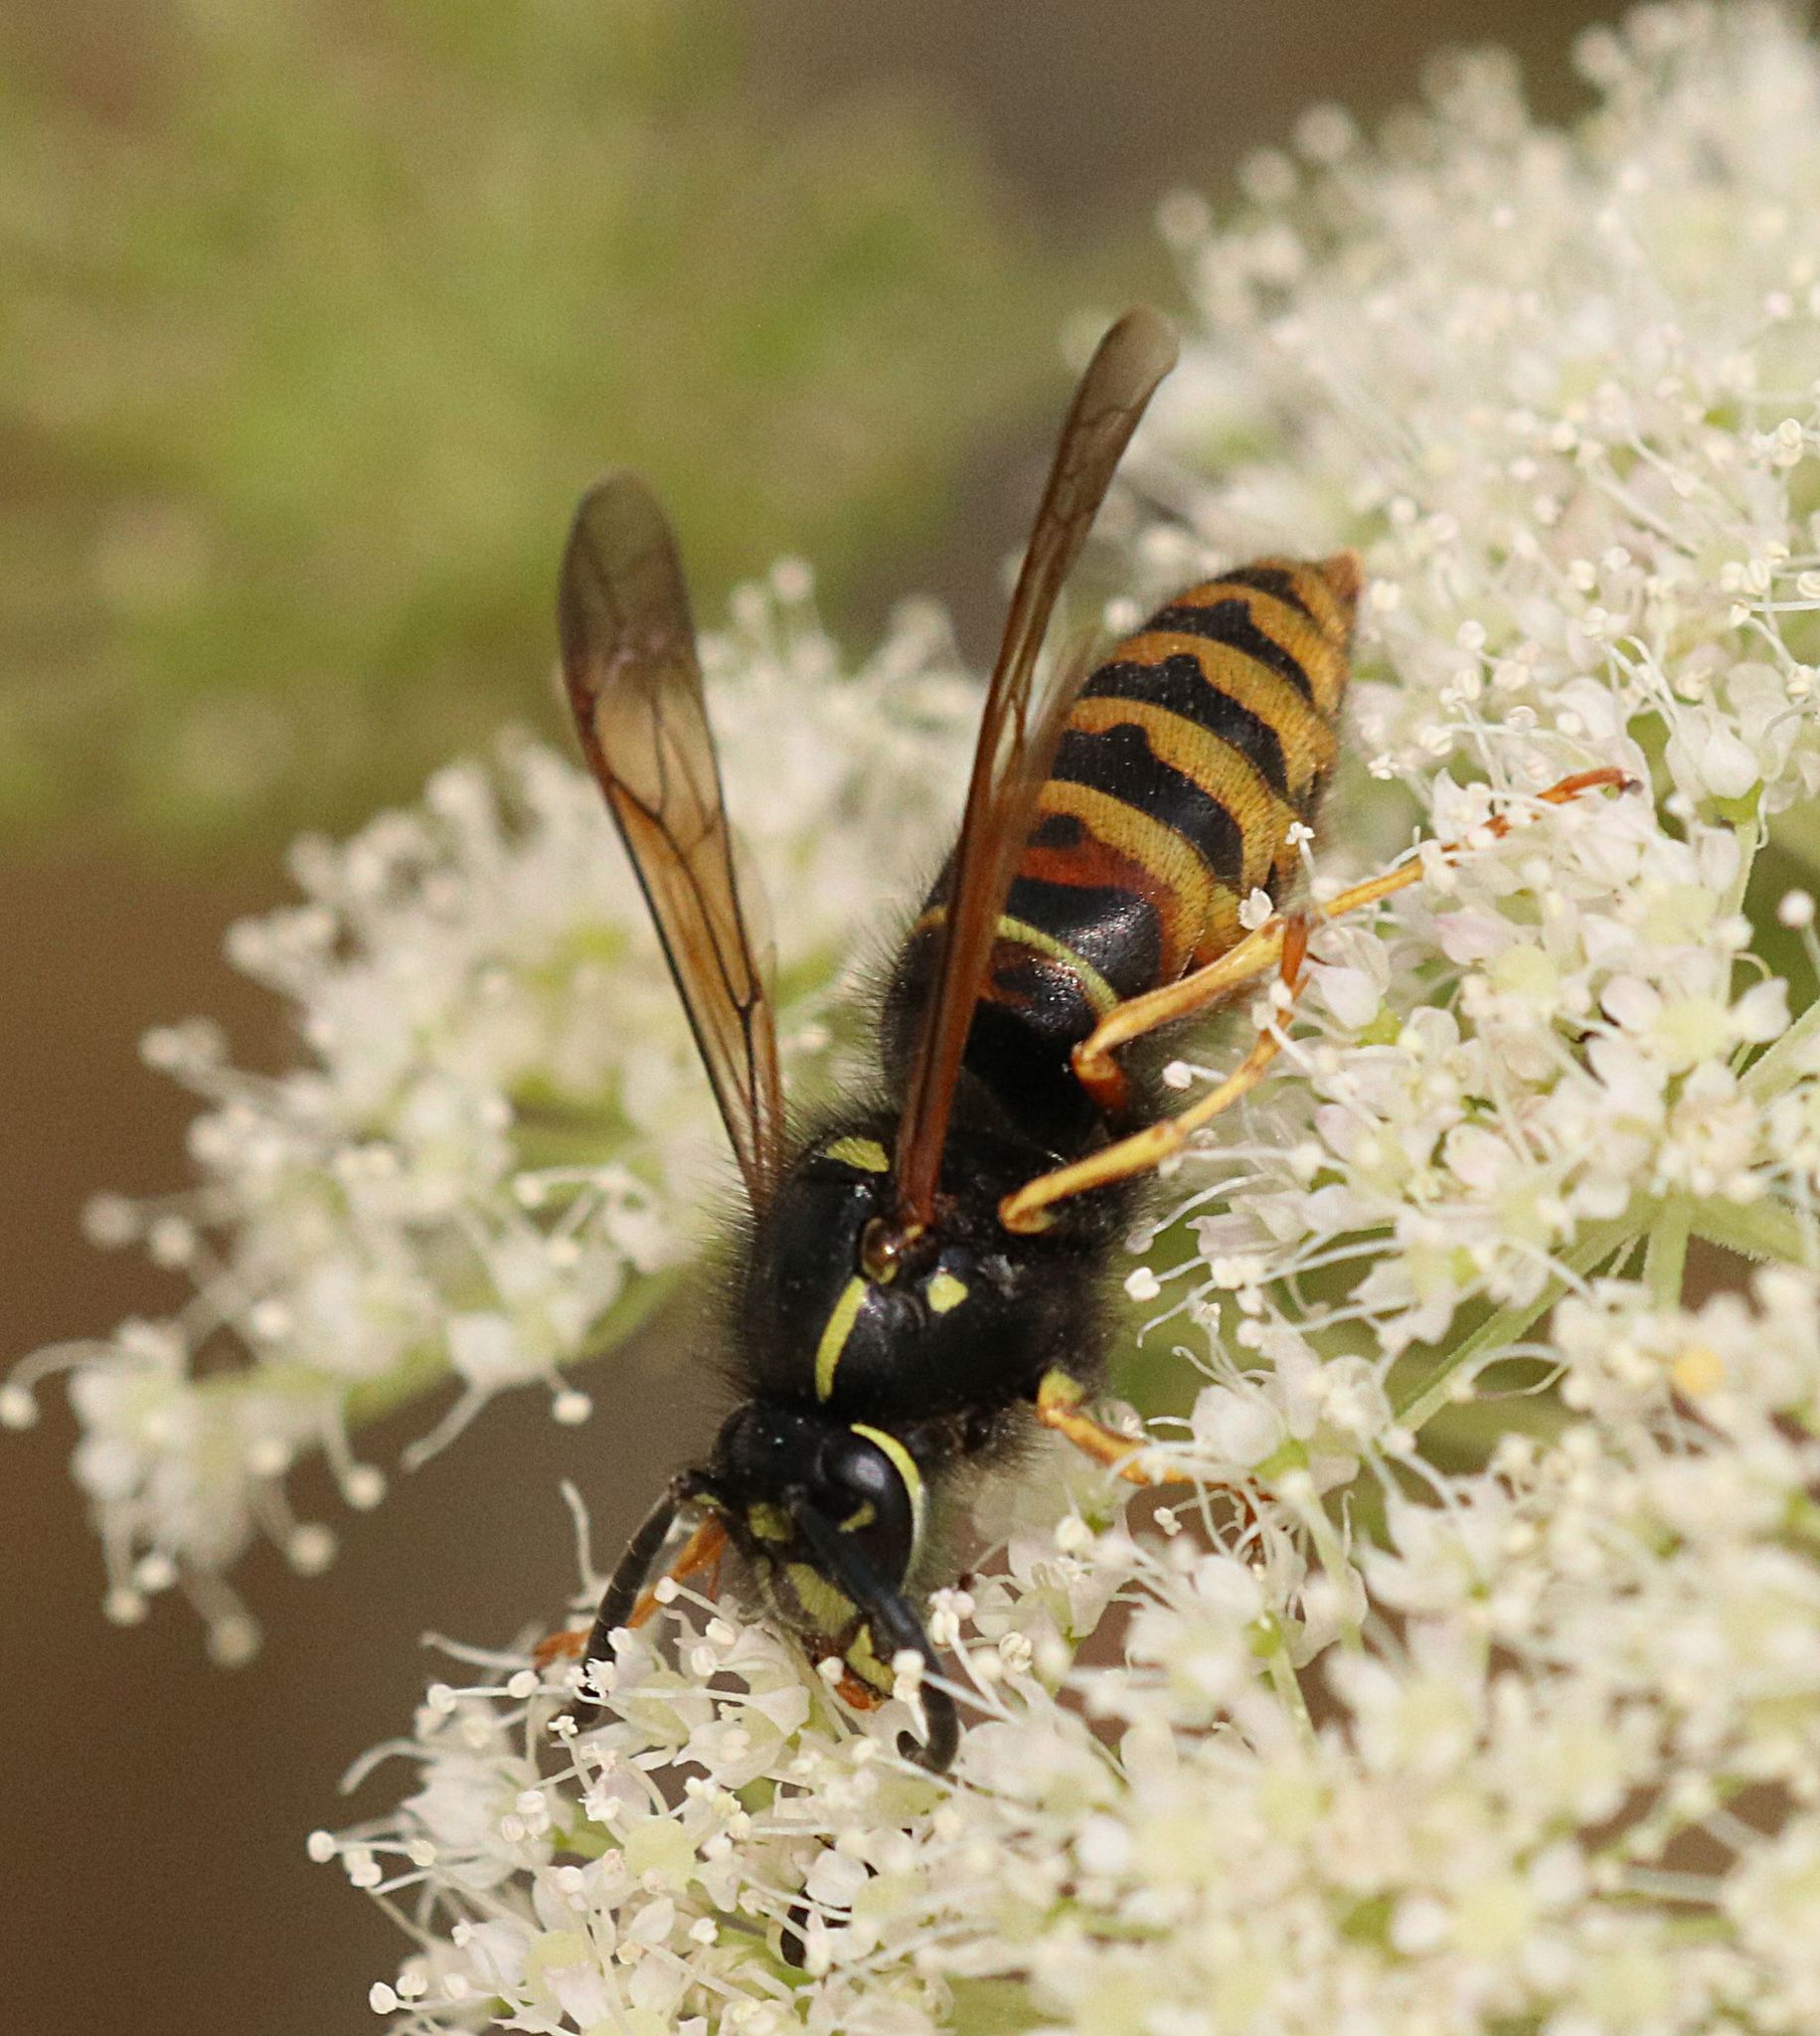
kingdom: Animalia
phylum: Arthropoda
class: Insecta
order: Hymenoptera
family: Vespidae
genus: Vespula
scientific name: Vespula rufa
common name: Red wasp
